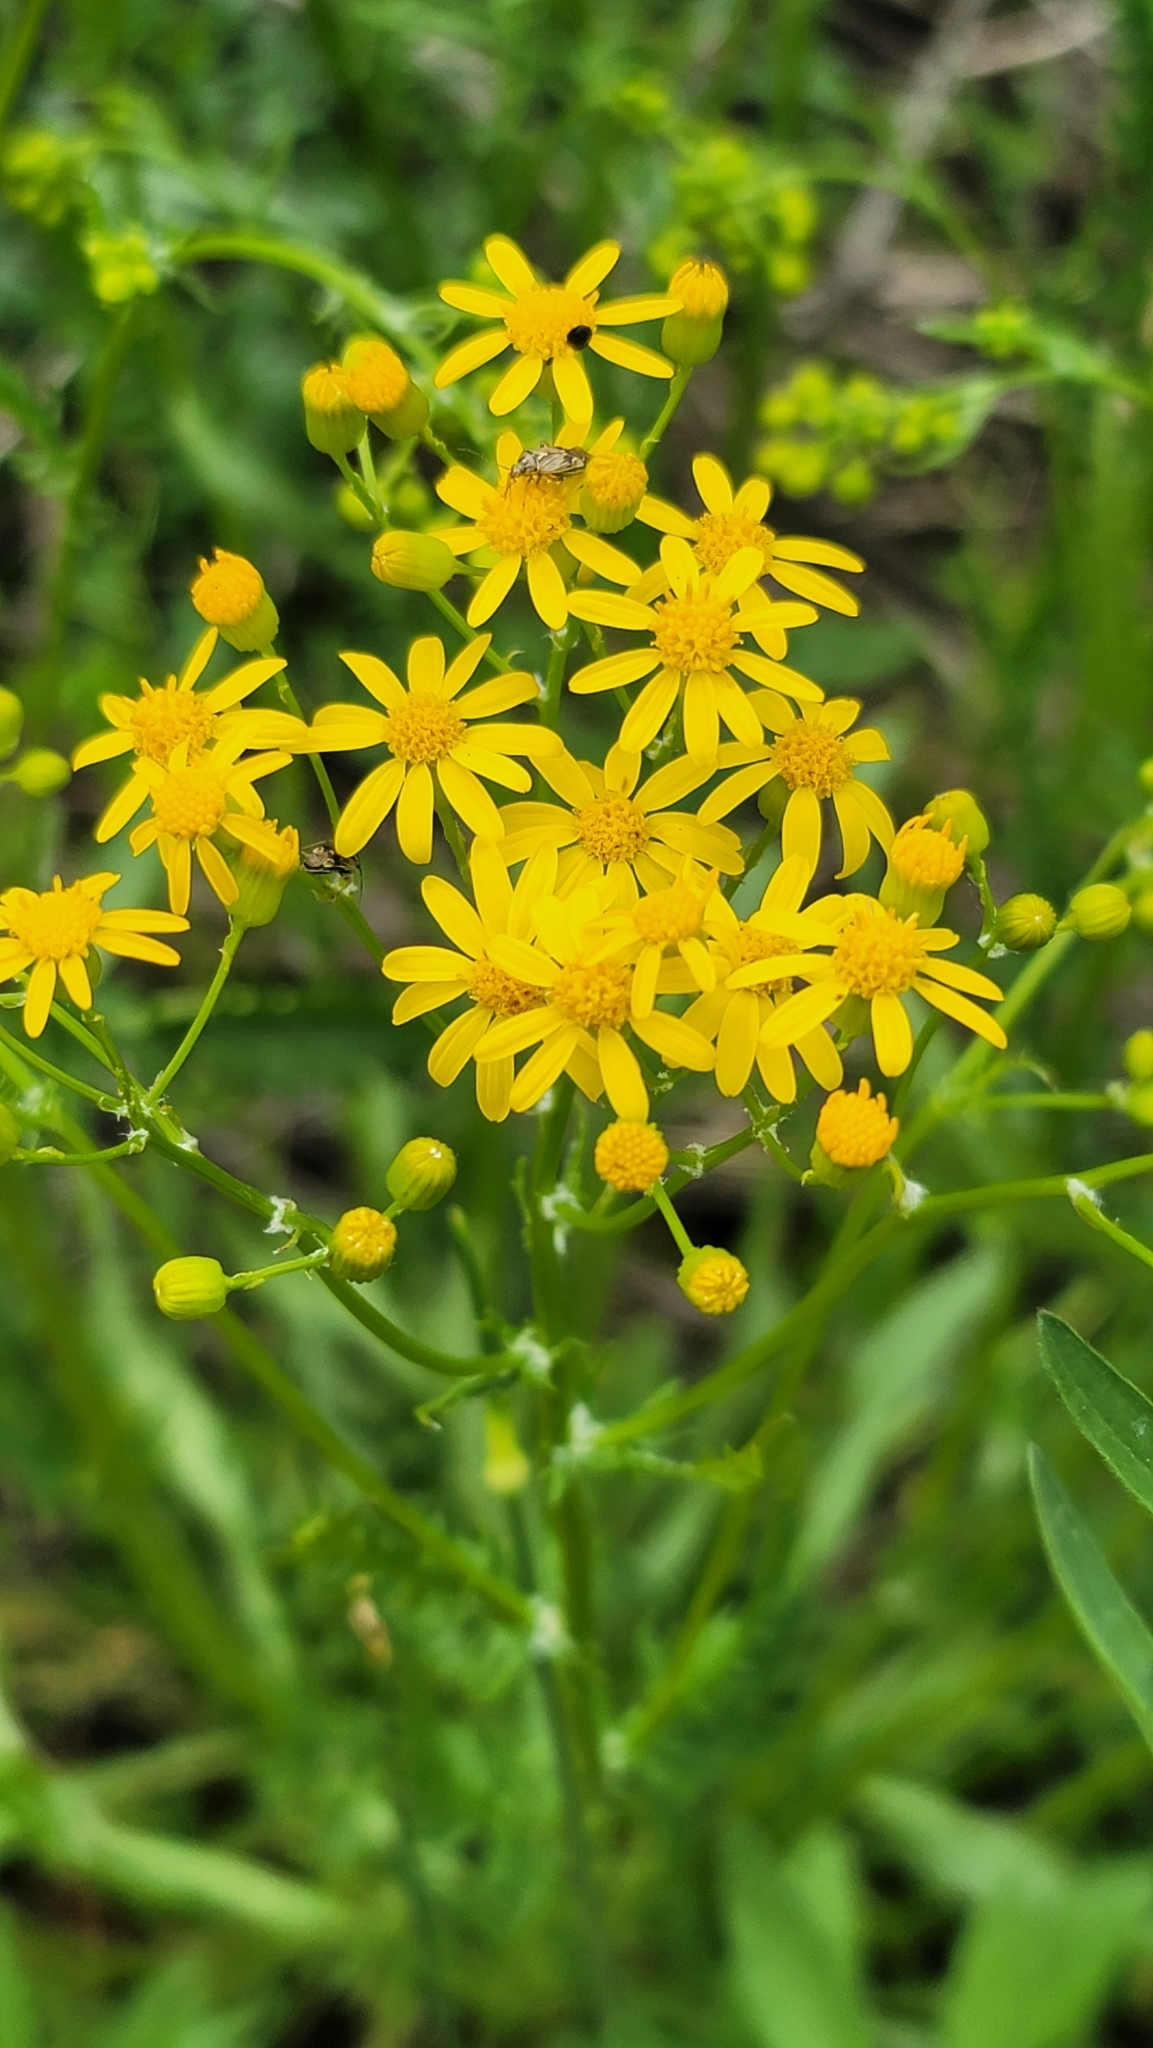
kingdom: Plantae
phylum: Tracheophyta
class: Magnoliopsida
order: Asterales
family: Asteraceae
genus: Packera
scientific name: Packera anonyma
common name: Small ragwort
